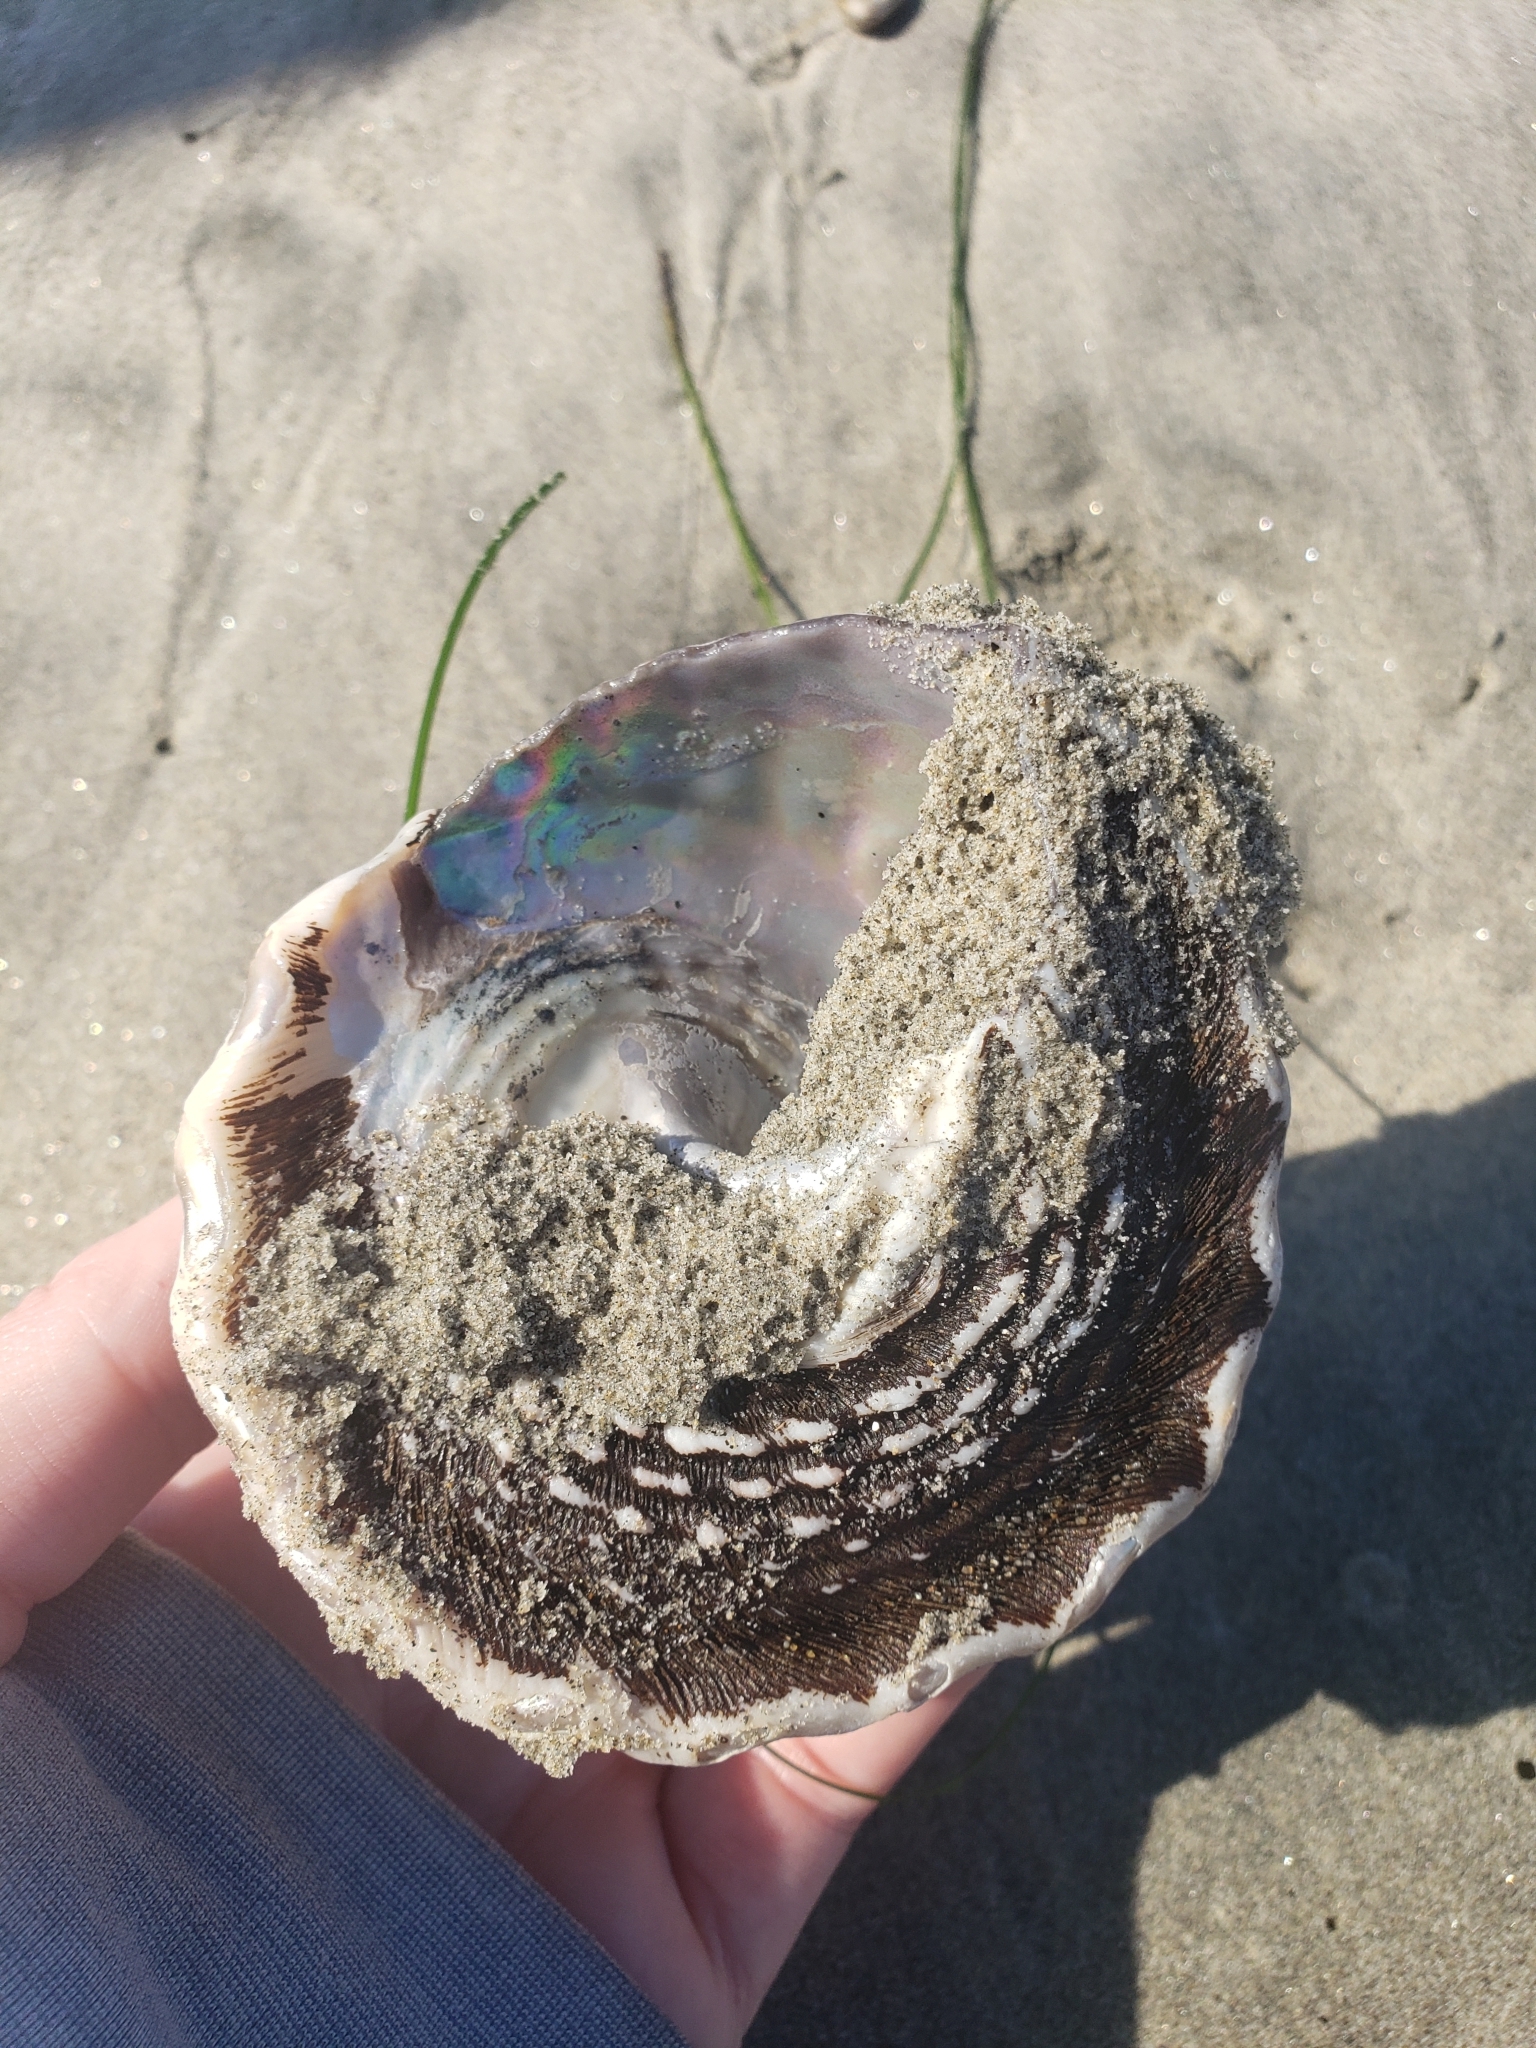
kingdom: Animalia
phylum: Mollusca
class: Gastropoda
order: Trochida
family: Turbinidae
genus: Megastraea
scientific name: Megastraea undosa
